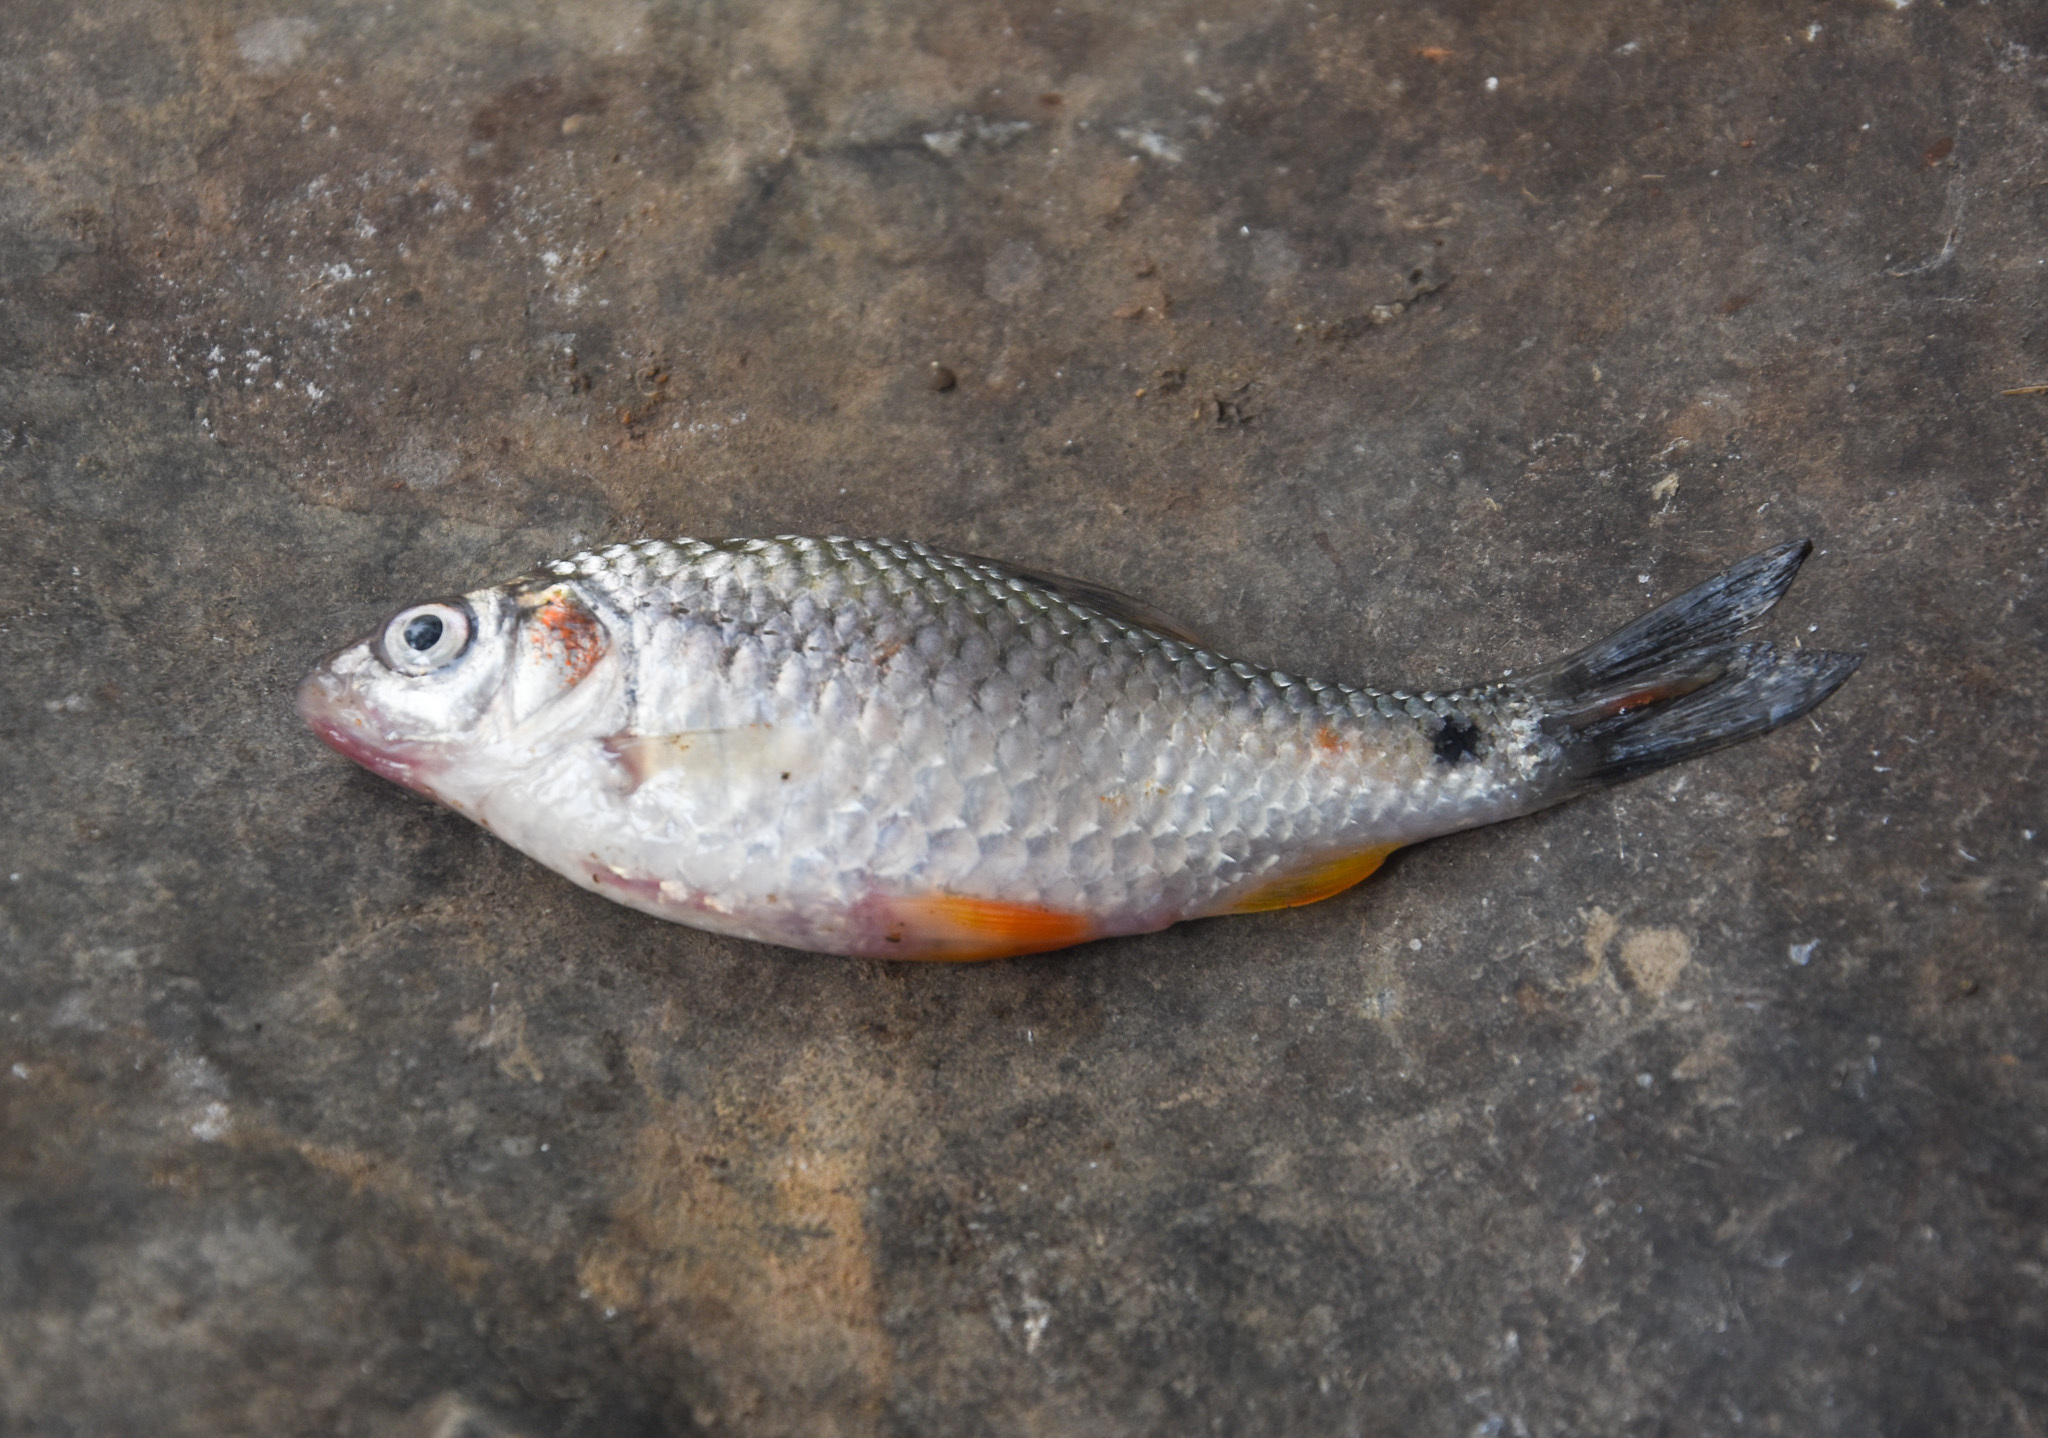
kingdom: Animalia
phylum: Chordata
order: Cypriniformes
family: Cyprinidae
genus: Puntius
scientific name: Puntius sophore
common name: Pool barb
